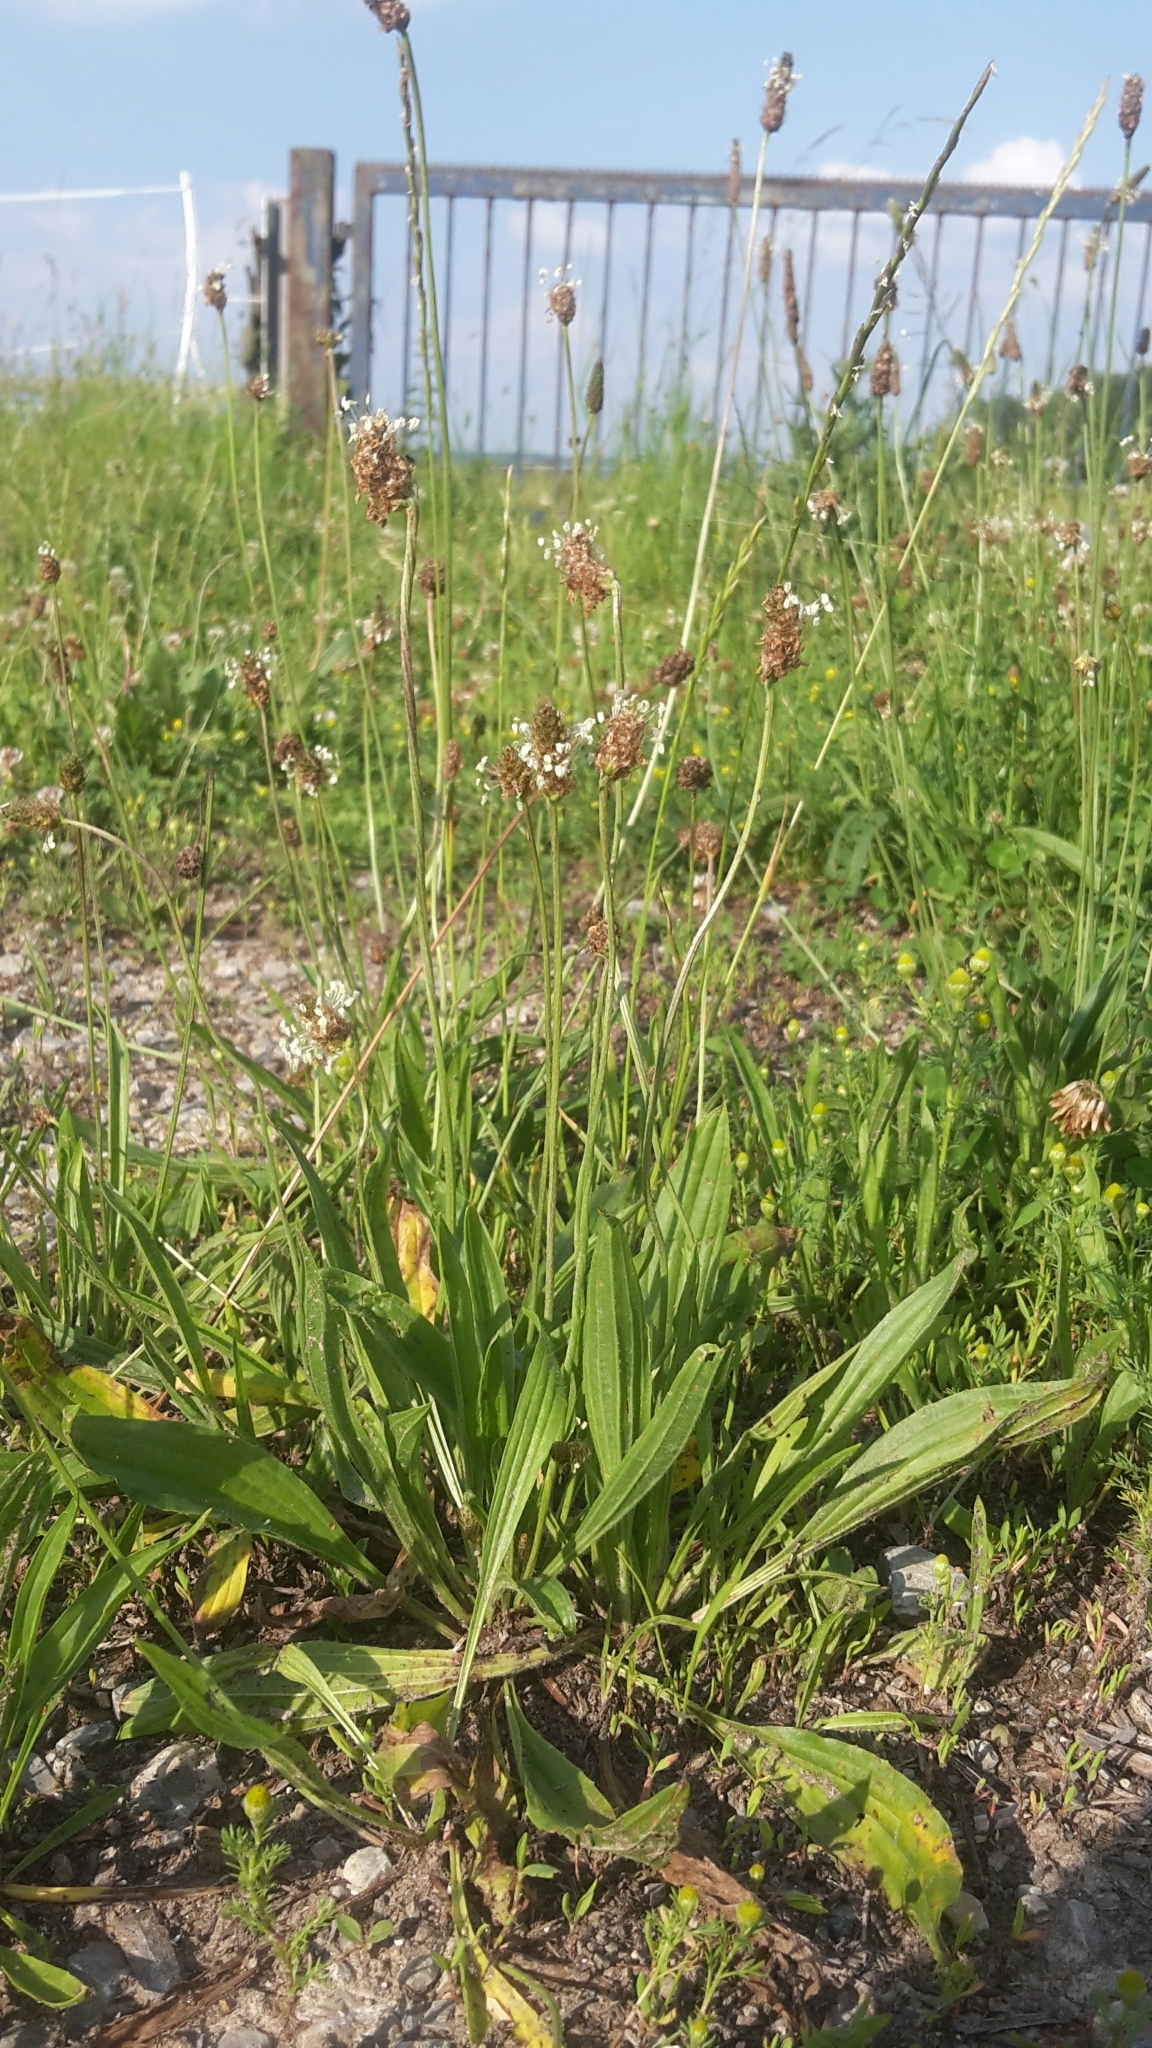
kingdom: Plantae
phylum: Tracheophyta
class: Magnoliopsida
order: Lamiales
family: Plantaginaceae
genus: Plantago
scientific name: Plantago lanceolata
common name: Ribwort plantain
